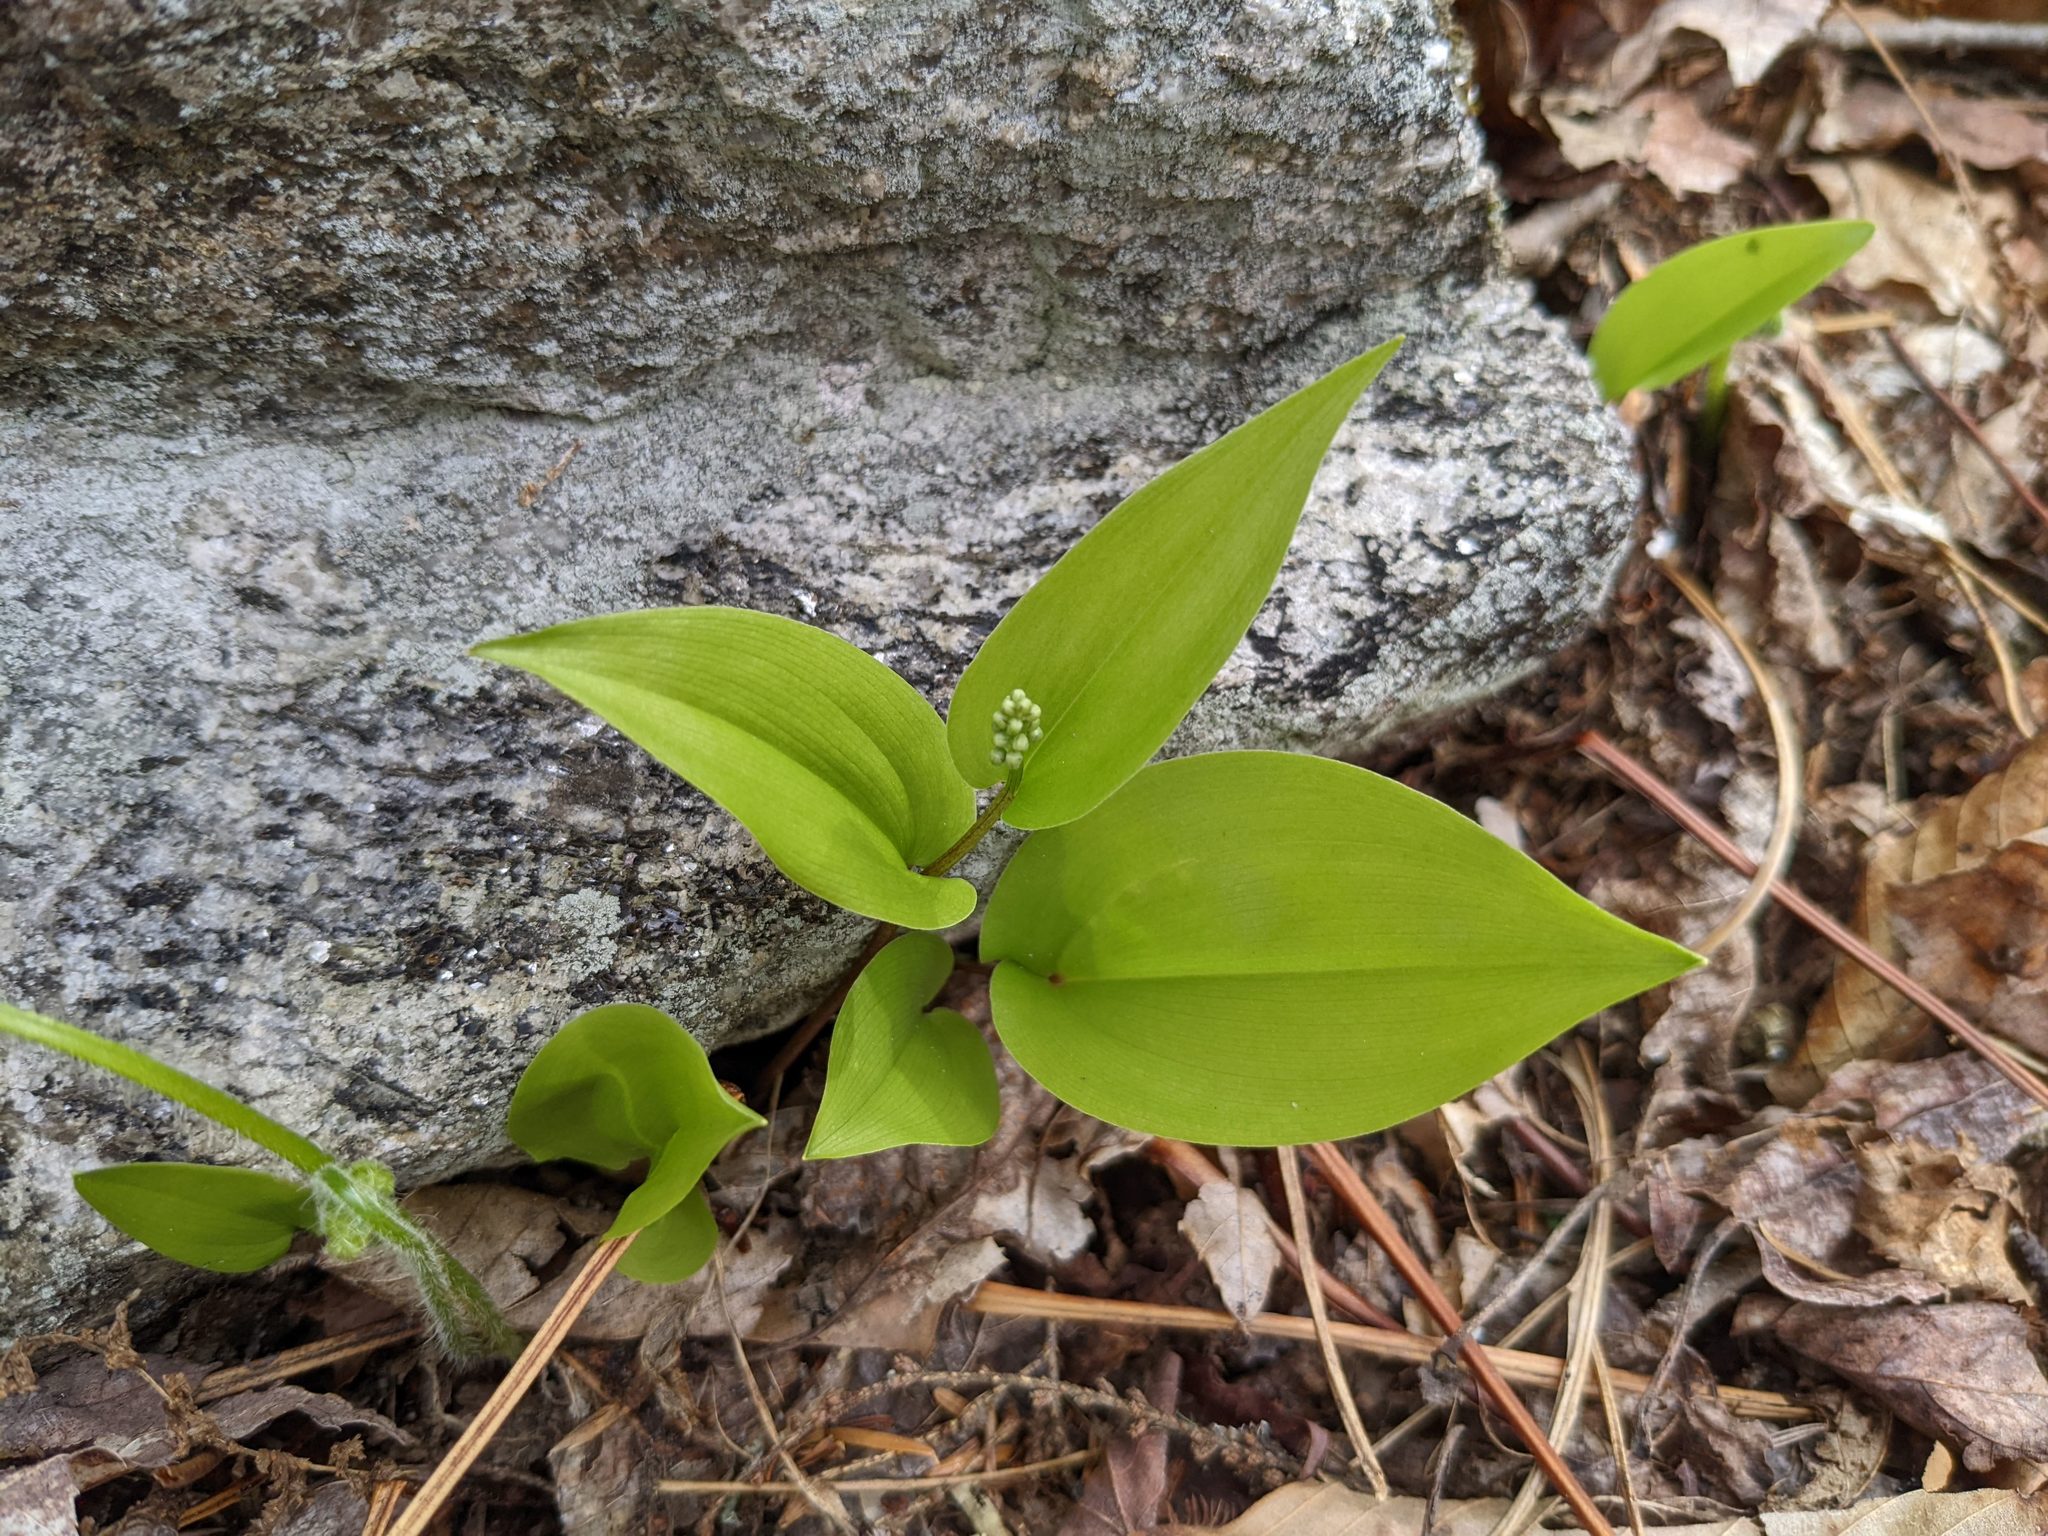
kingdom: Plantae
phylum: Tracheophyta
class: Liliopsida
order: Asparagales
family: Asparagaceae
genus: Maianthemum
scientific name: Maianthemum canadense
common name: False lily-of-the-valley
